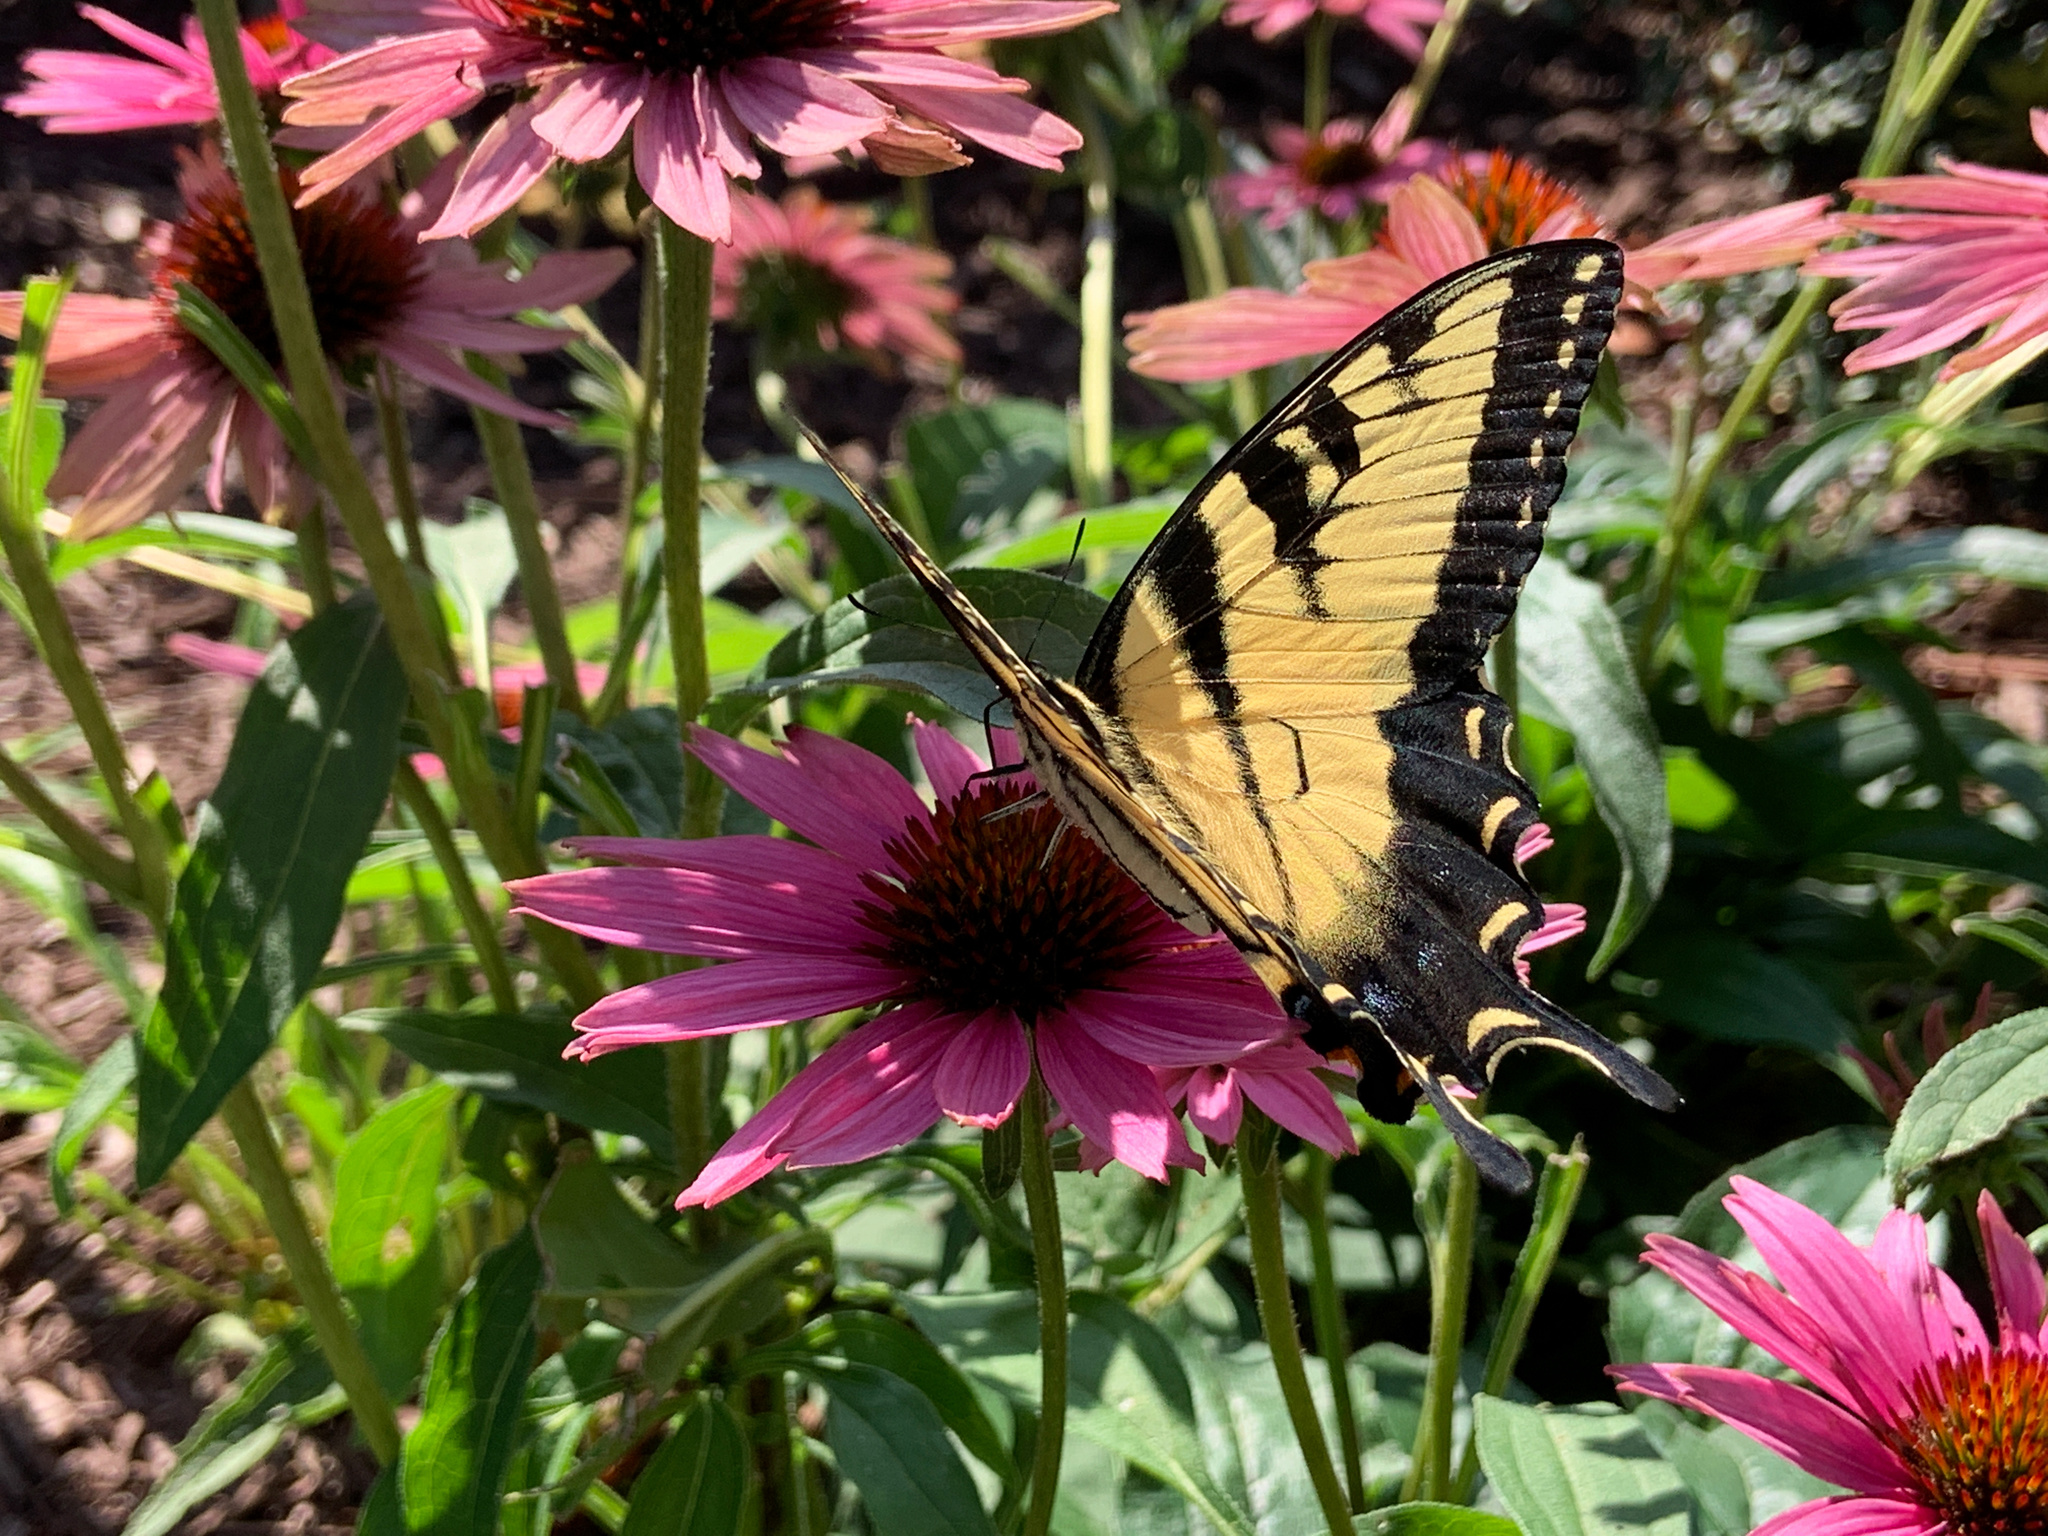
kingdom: Animalia
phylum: Arthropoda
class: Insecta
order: Lepidoptera
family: Papilionidae
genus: Papilio
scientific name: Papilio glaucus
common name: Tiger swallowtail
